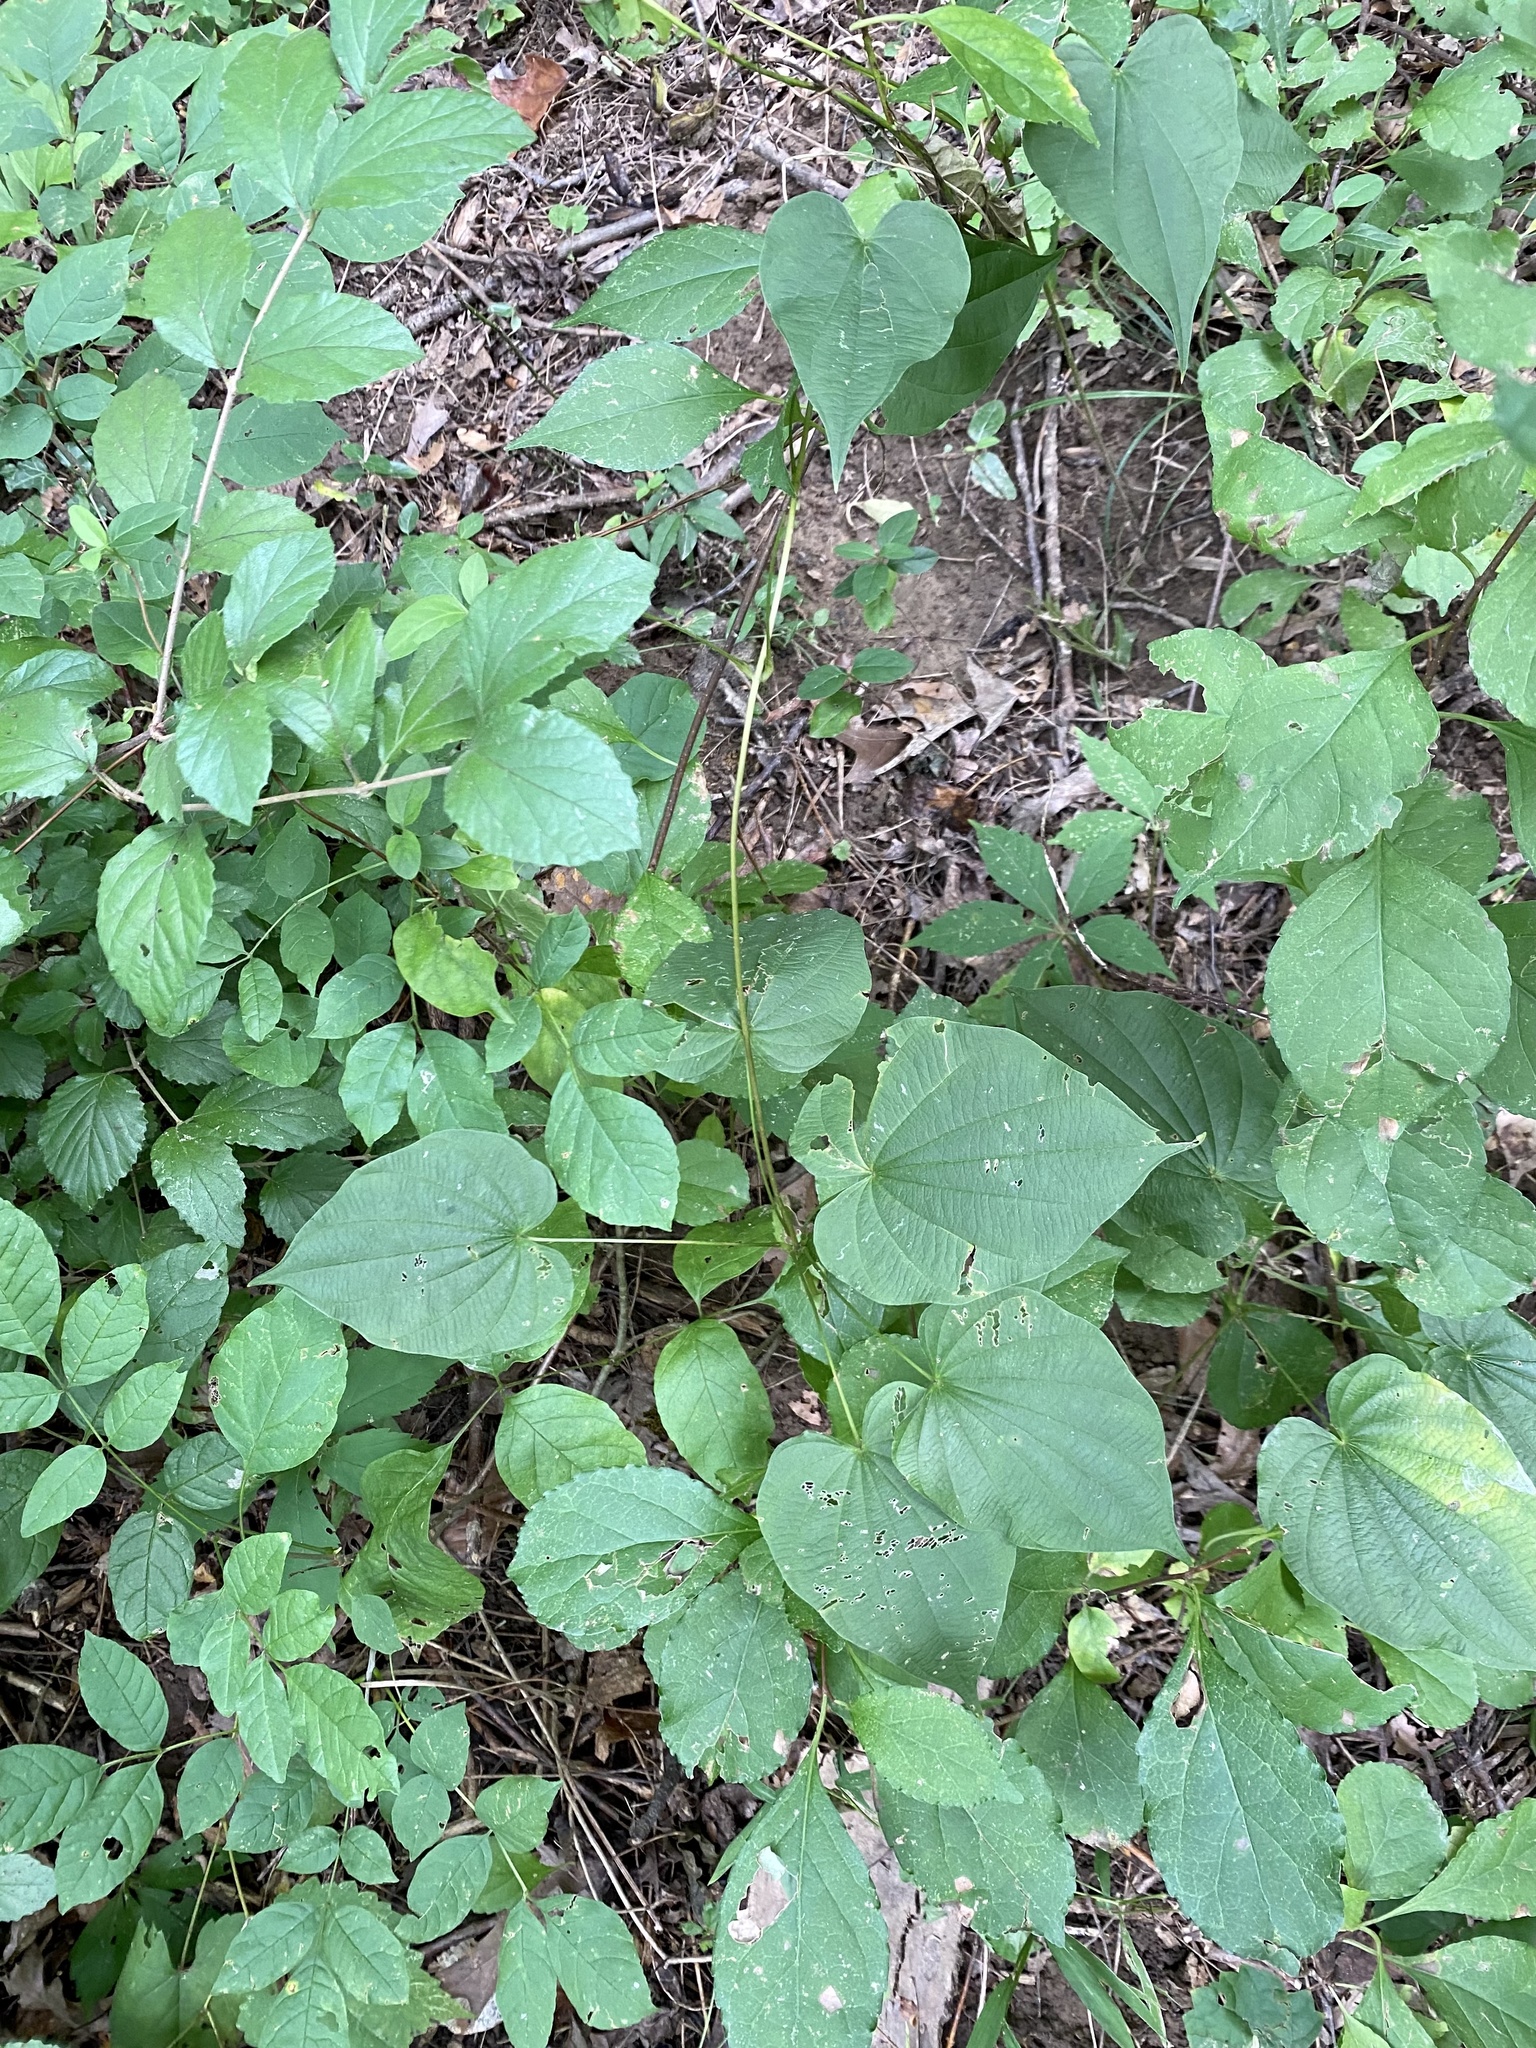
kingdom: Plantae
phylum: Tracheophyta
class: Liliopsida
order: Dioscoreales
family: Dioscoreaceae
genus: Dioscorea
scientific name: Dioscorea villosa
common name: Wild yam
